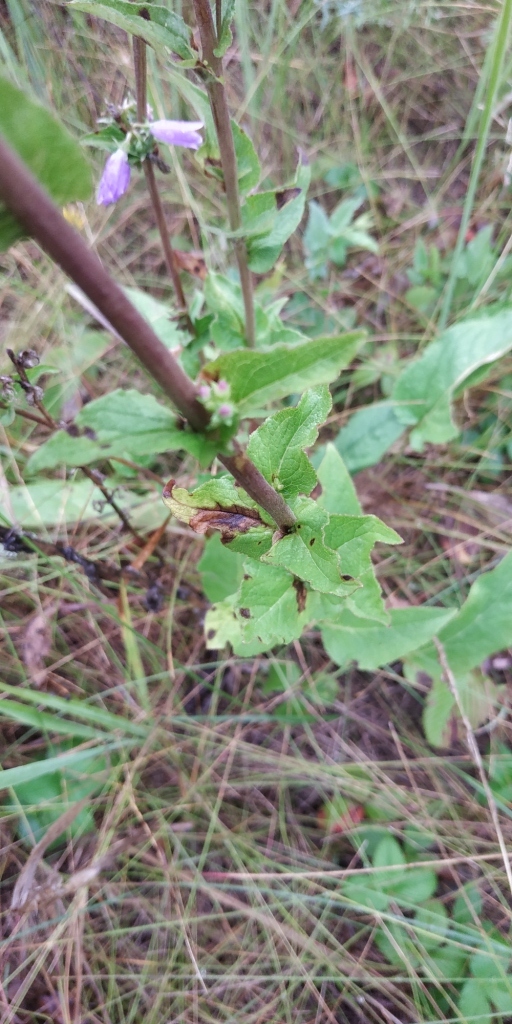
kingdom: Plantae
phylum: Tracheophyta
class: Magnoliopsida
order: Asterales
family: Campanulaceae
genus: Campanula
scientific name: Campanula bononiensis
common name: Pale bellflower
